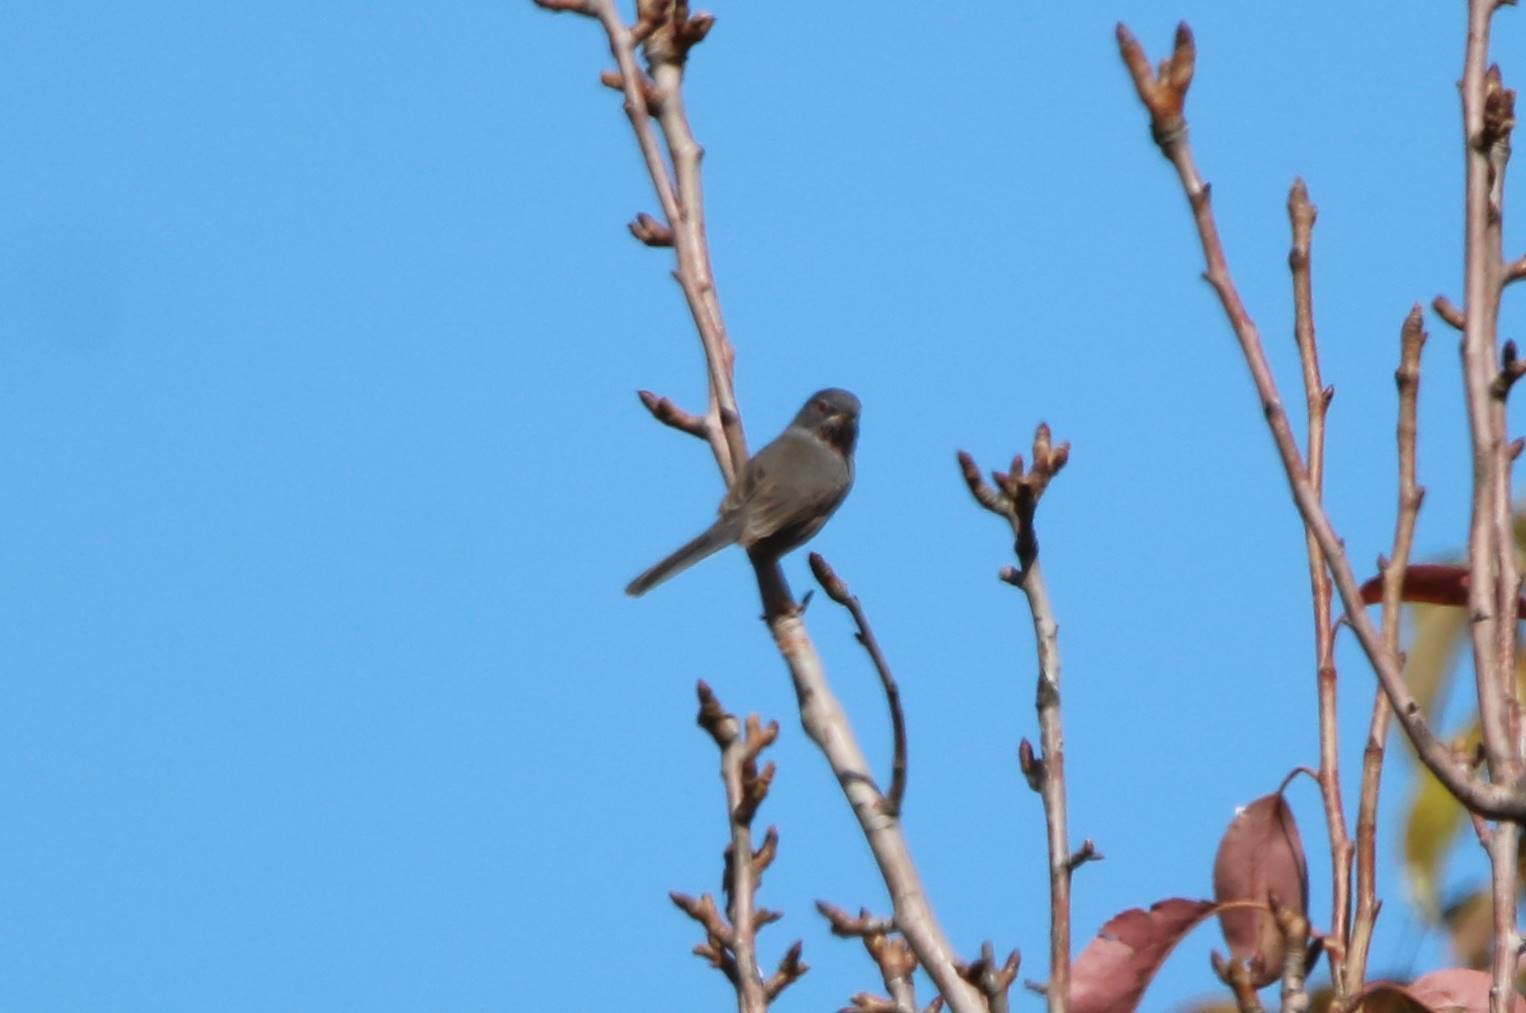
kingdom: Animalia
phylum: Chordata
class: Aves
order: Passeriformes
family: Sylviidae
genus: Sylvia
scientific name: Sylvia sarda
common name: Marmora's warbler
